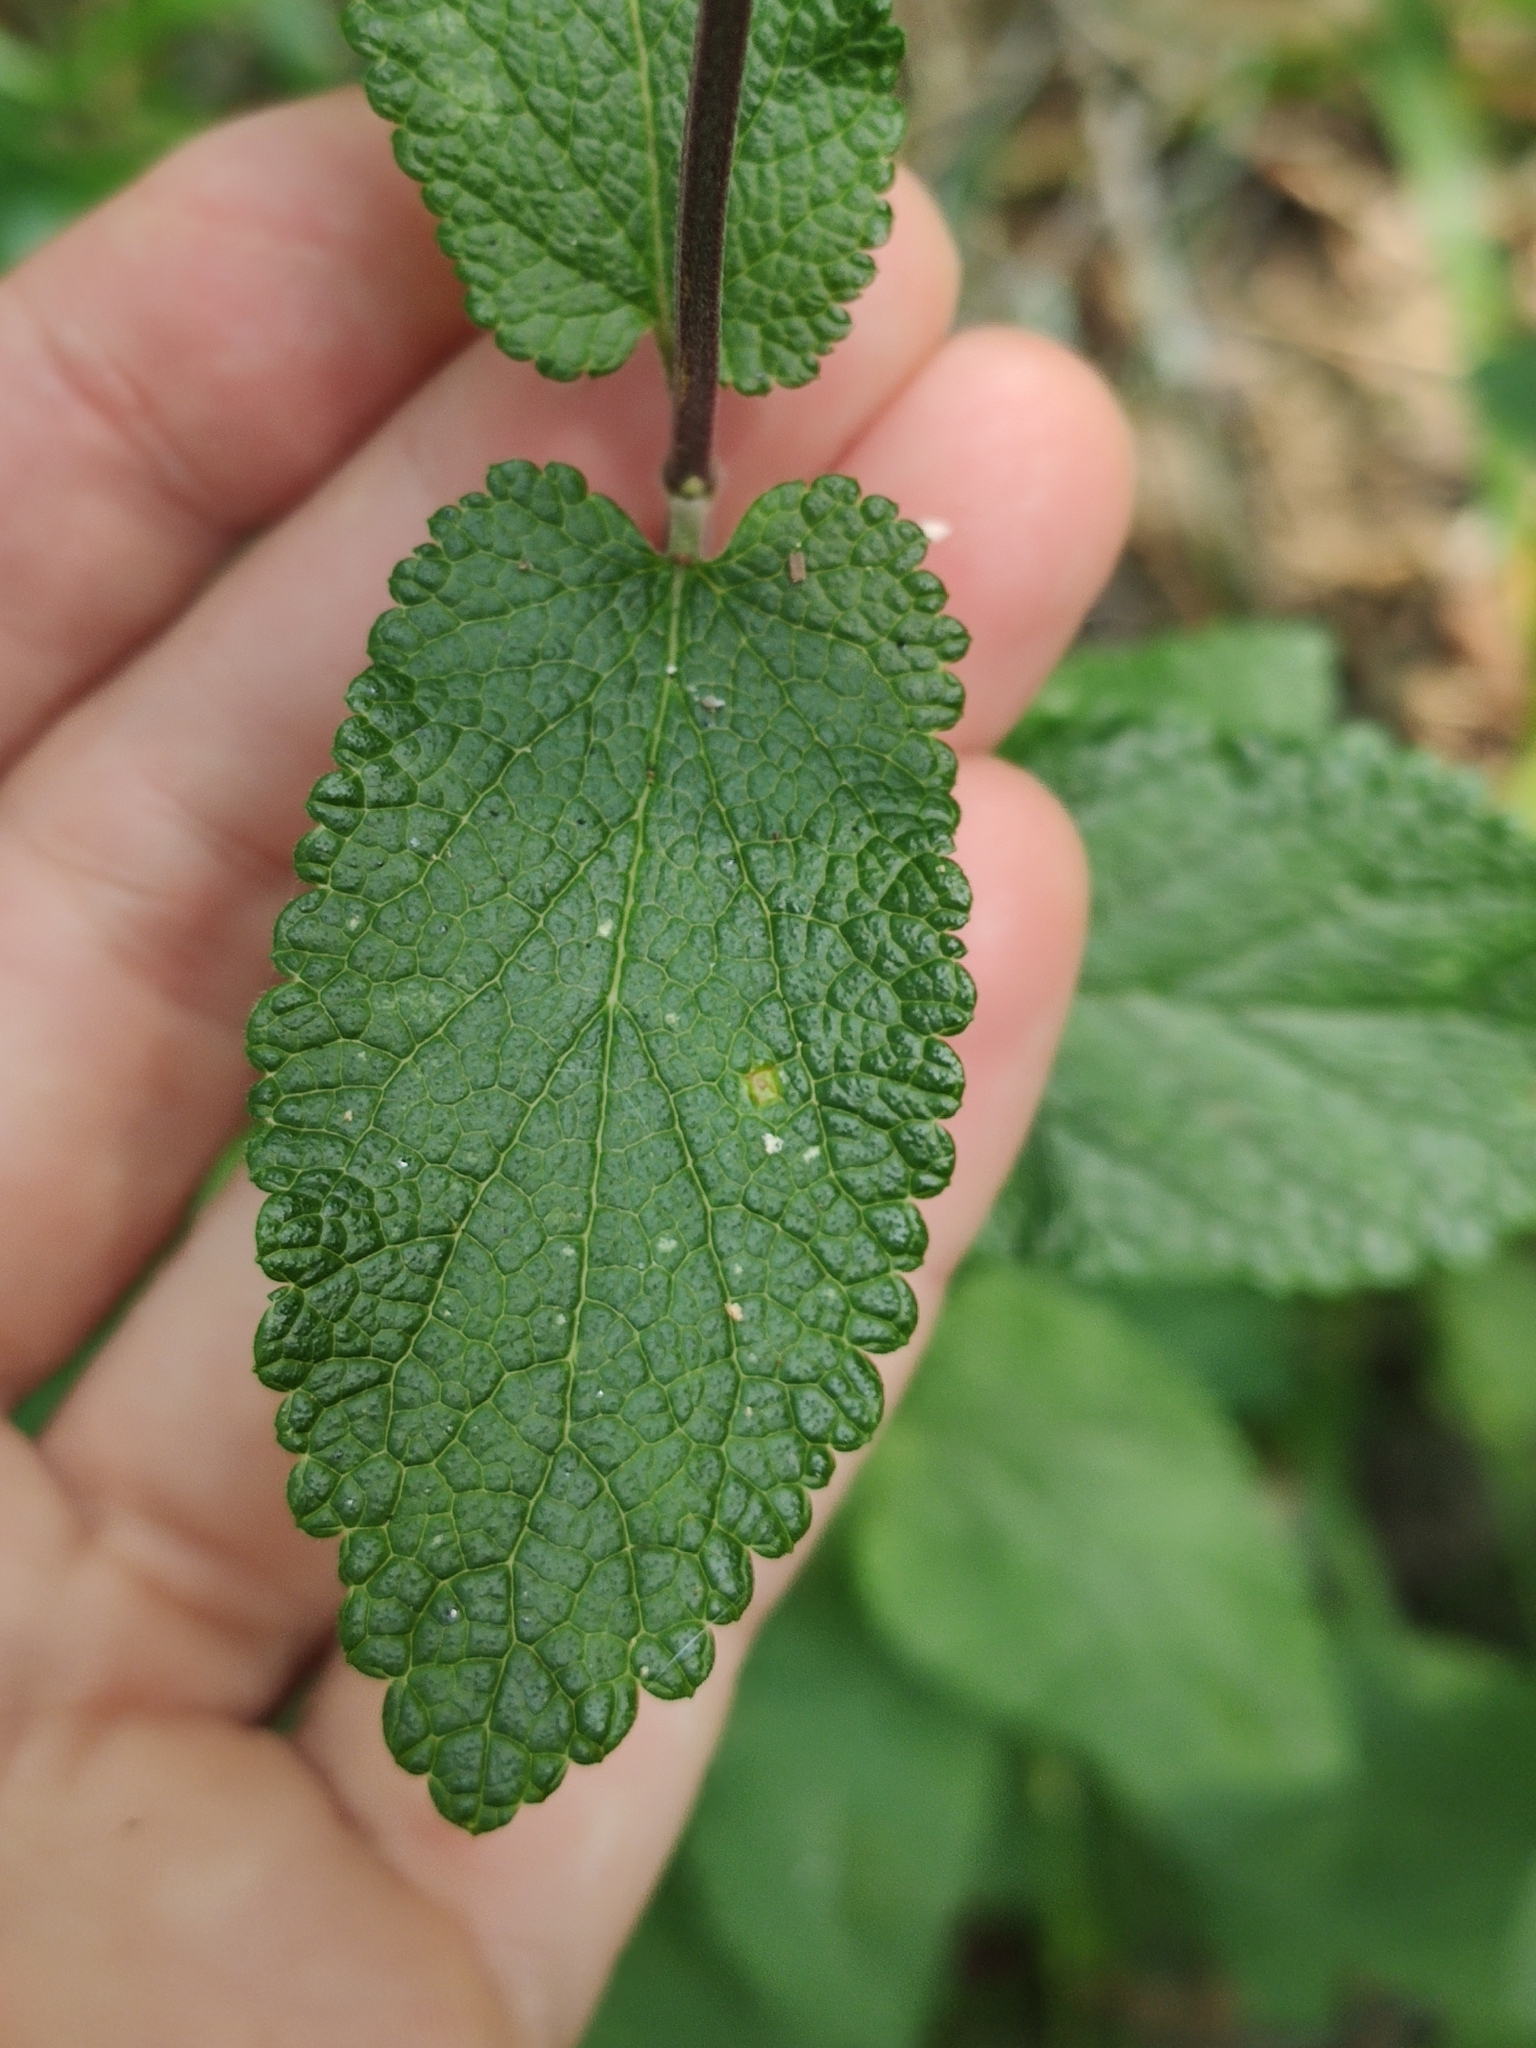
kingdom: Plantae
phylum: Tracheophyta
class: Magnoliopsida
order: Lamiales
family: Lamiaceae
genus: Teucrium
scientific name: Teucrium scorodonia
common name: Woodland germander
